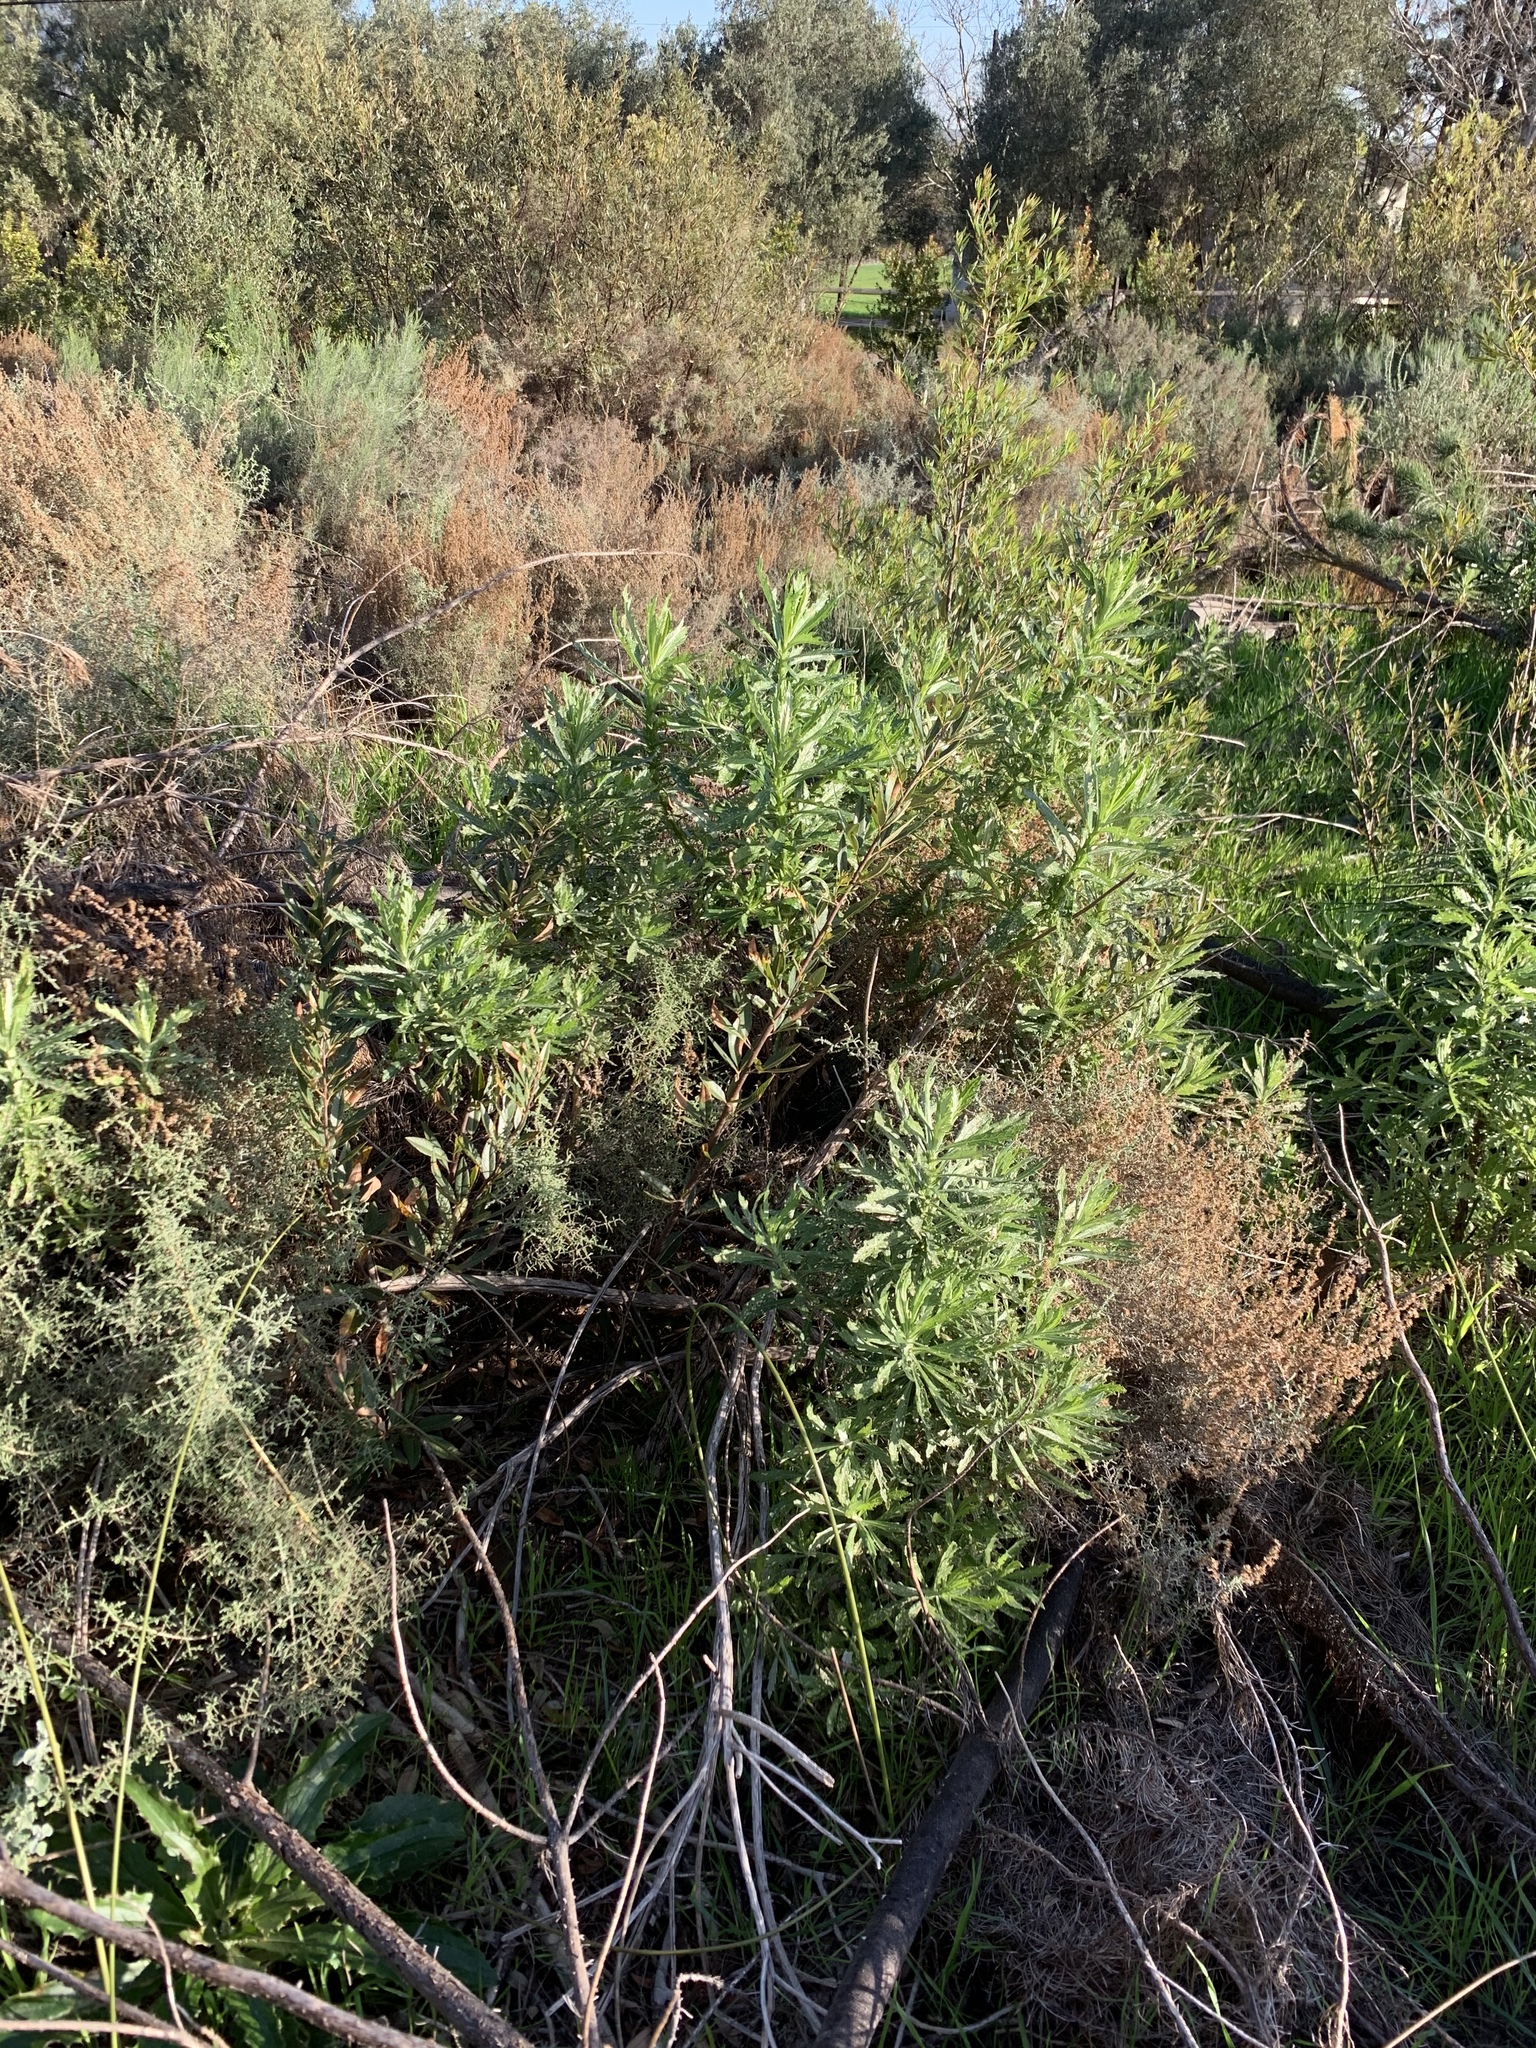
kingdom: Plantae
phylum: Tracheophyta
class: Magnoliopsida
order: Asterales
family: Asteraceae
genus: Senecio
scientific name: Senecio pterophorus
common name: Shoddy ragwort
